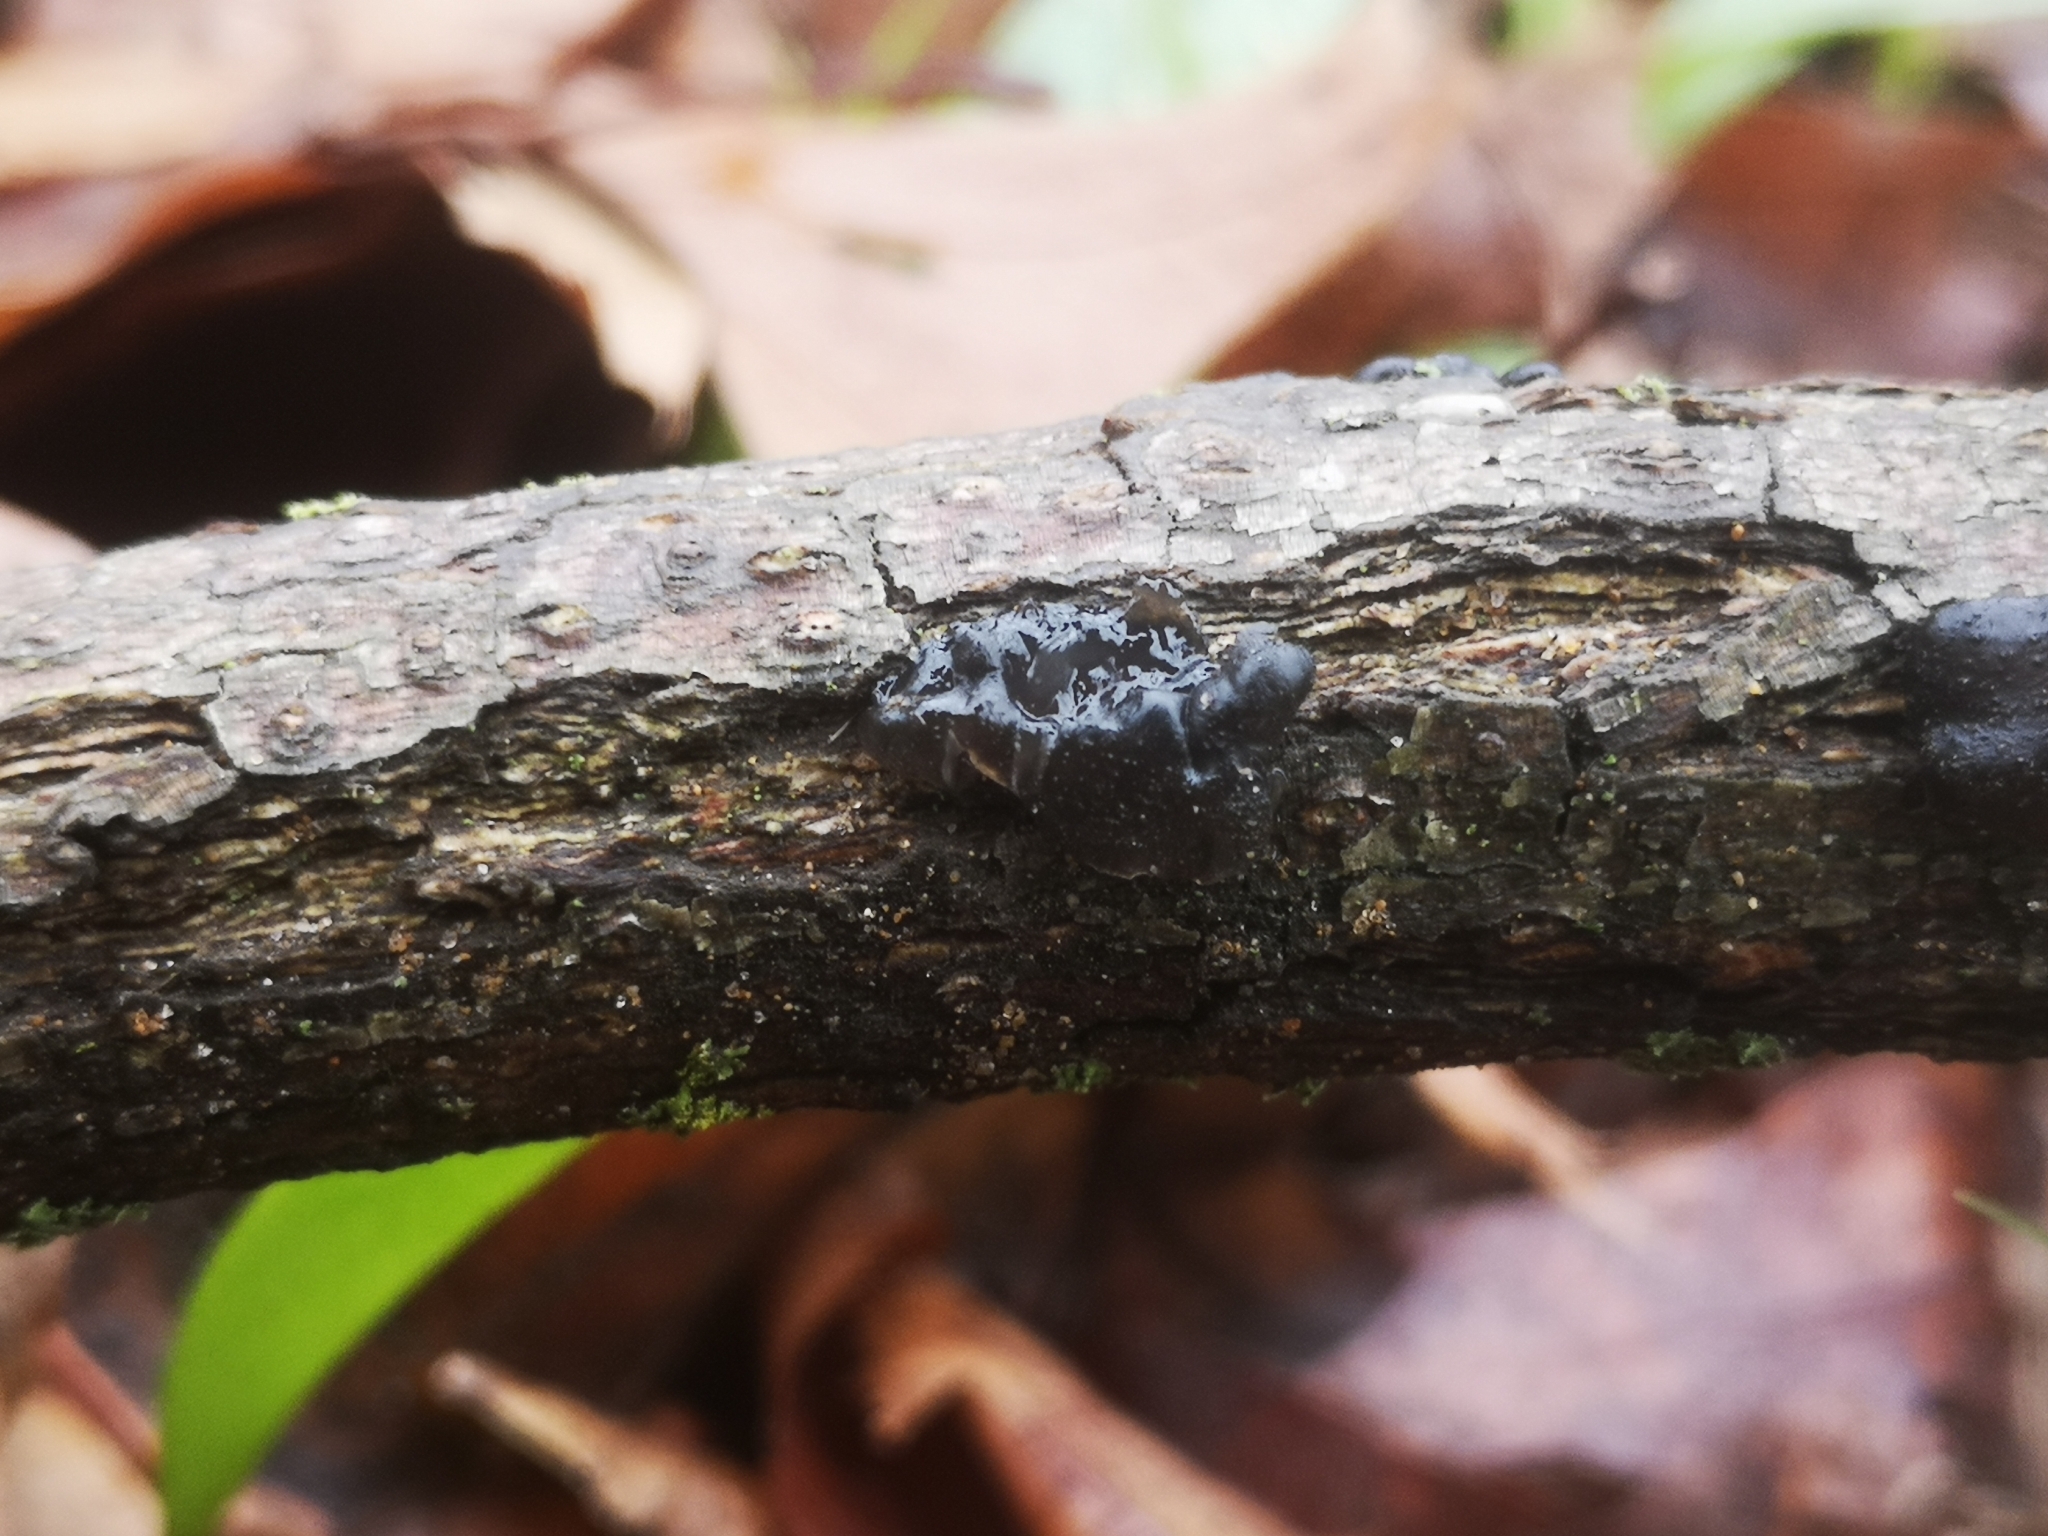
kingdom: Fungi
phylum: Basidiomycota
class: Agaricomycetes
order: Auriculariales
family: Auriculariaceae
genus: Exidia
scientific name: Exidia nigricans
